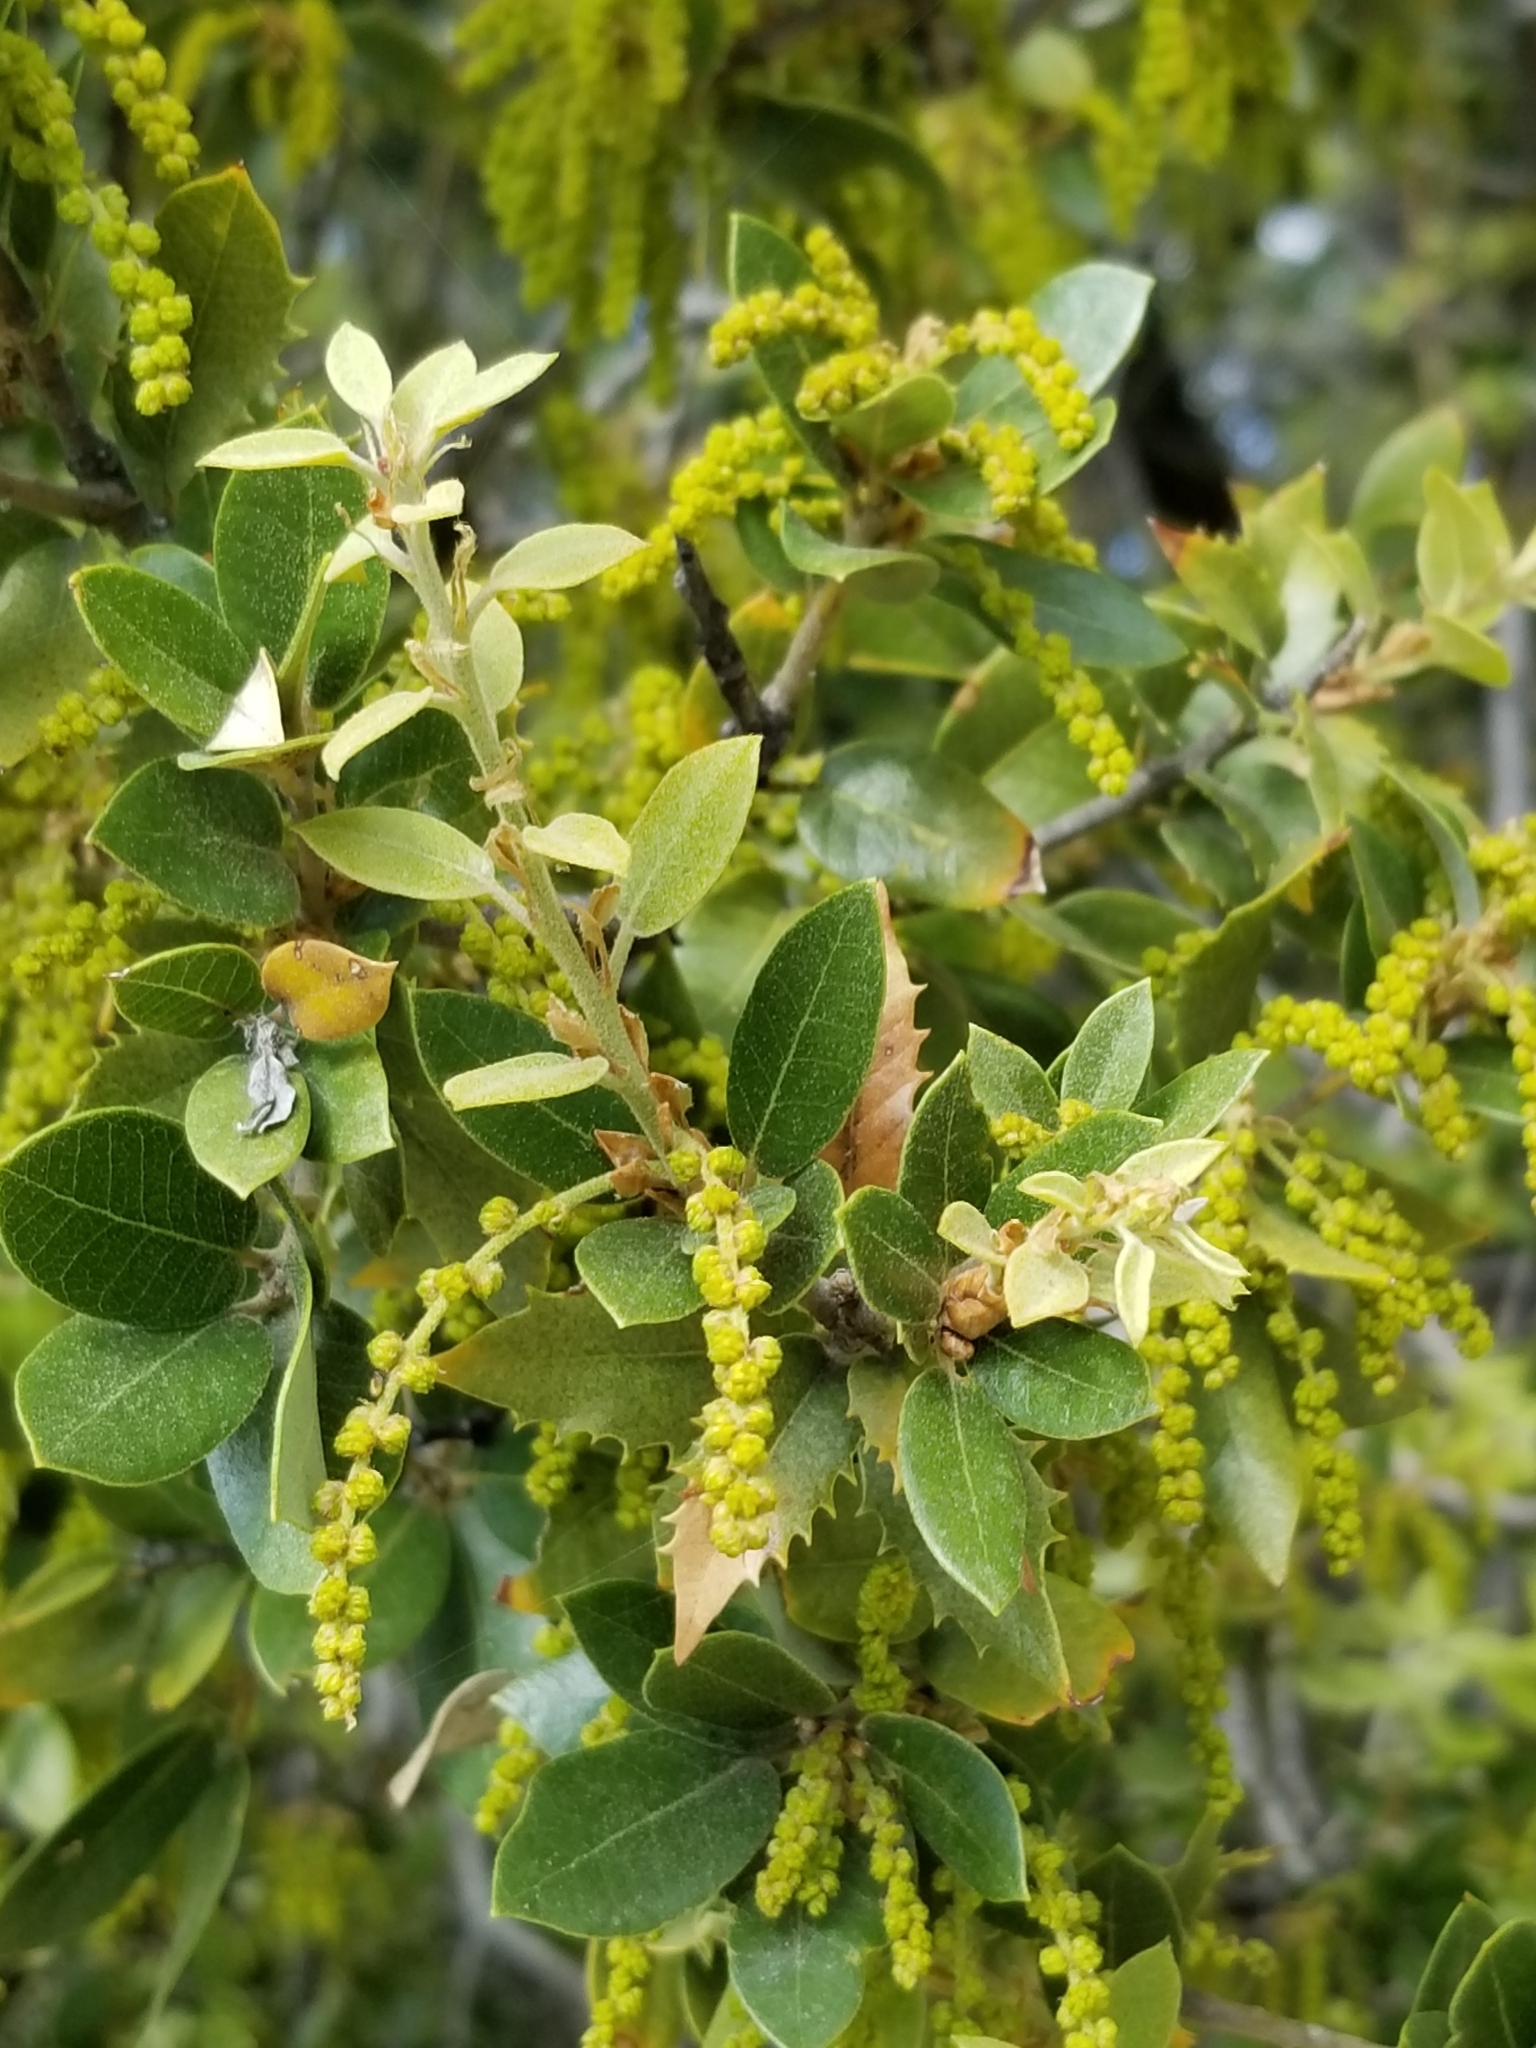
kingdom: Plantae
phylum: Tracheophyta
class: Magnoliopsida
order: Fagales
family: Fagaceae
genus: Quercus
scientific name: Quercus chrysolepis
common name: Canyon live oak
